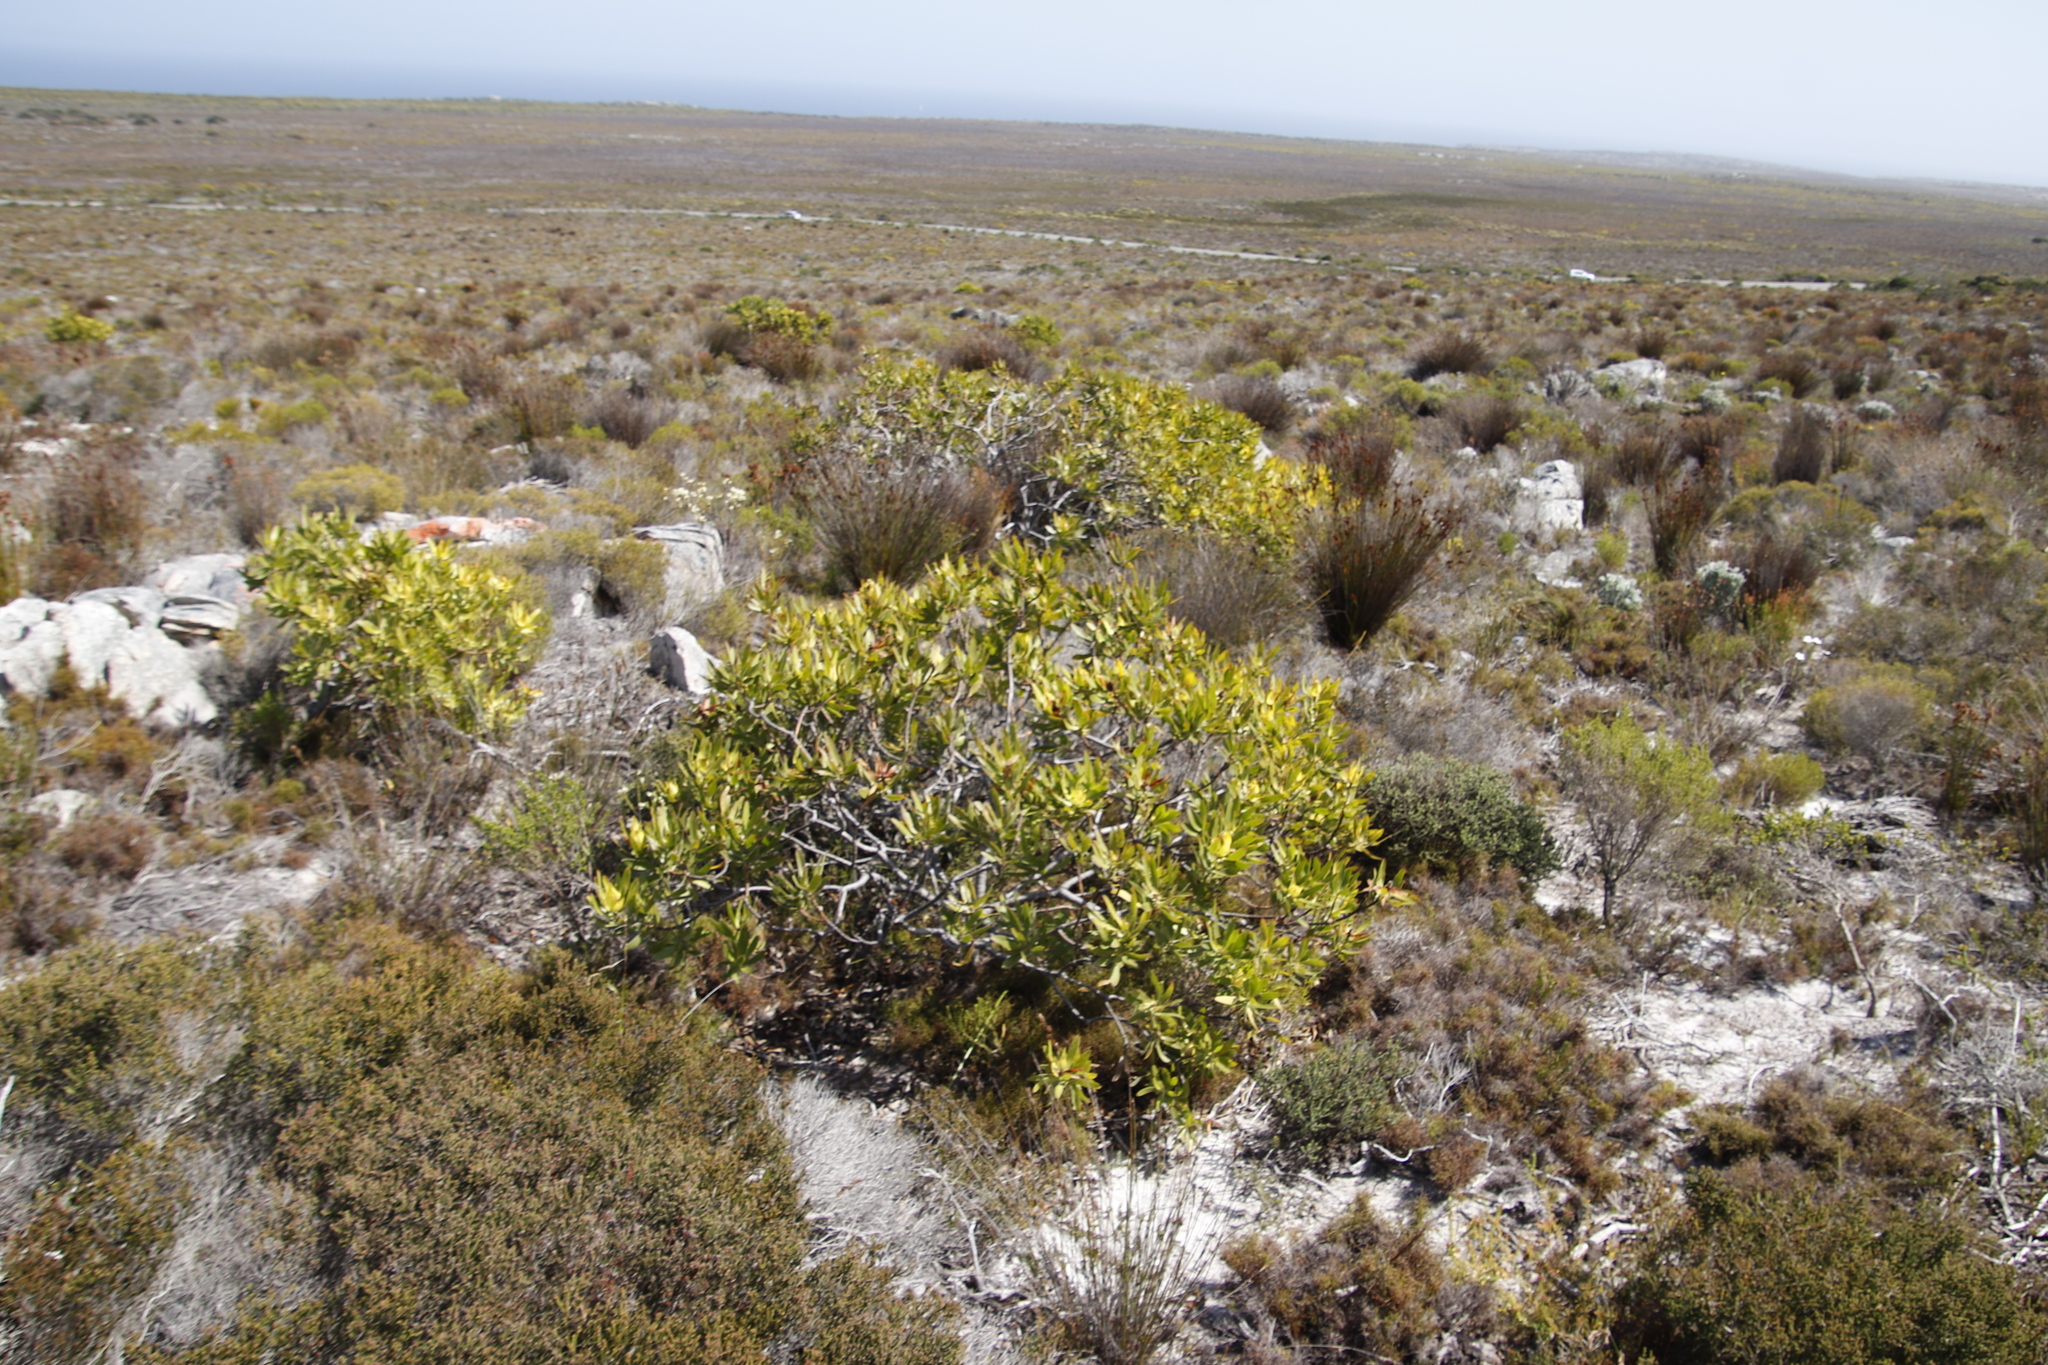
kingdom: Plantae
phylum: Tracheophyta
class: Magnoliopsida
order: Proteales
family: Proteaceae
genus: Leucadendron
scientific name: Leucadendron laureolum
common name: Golden sunshinebush
